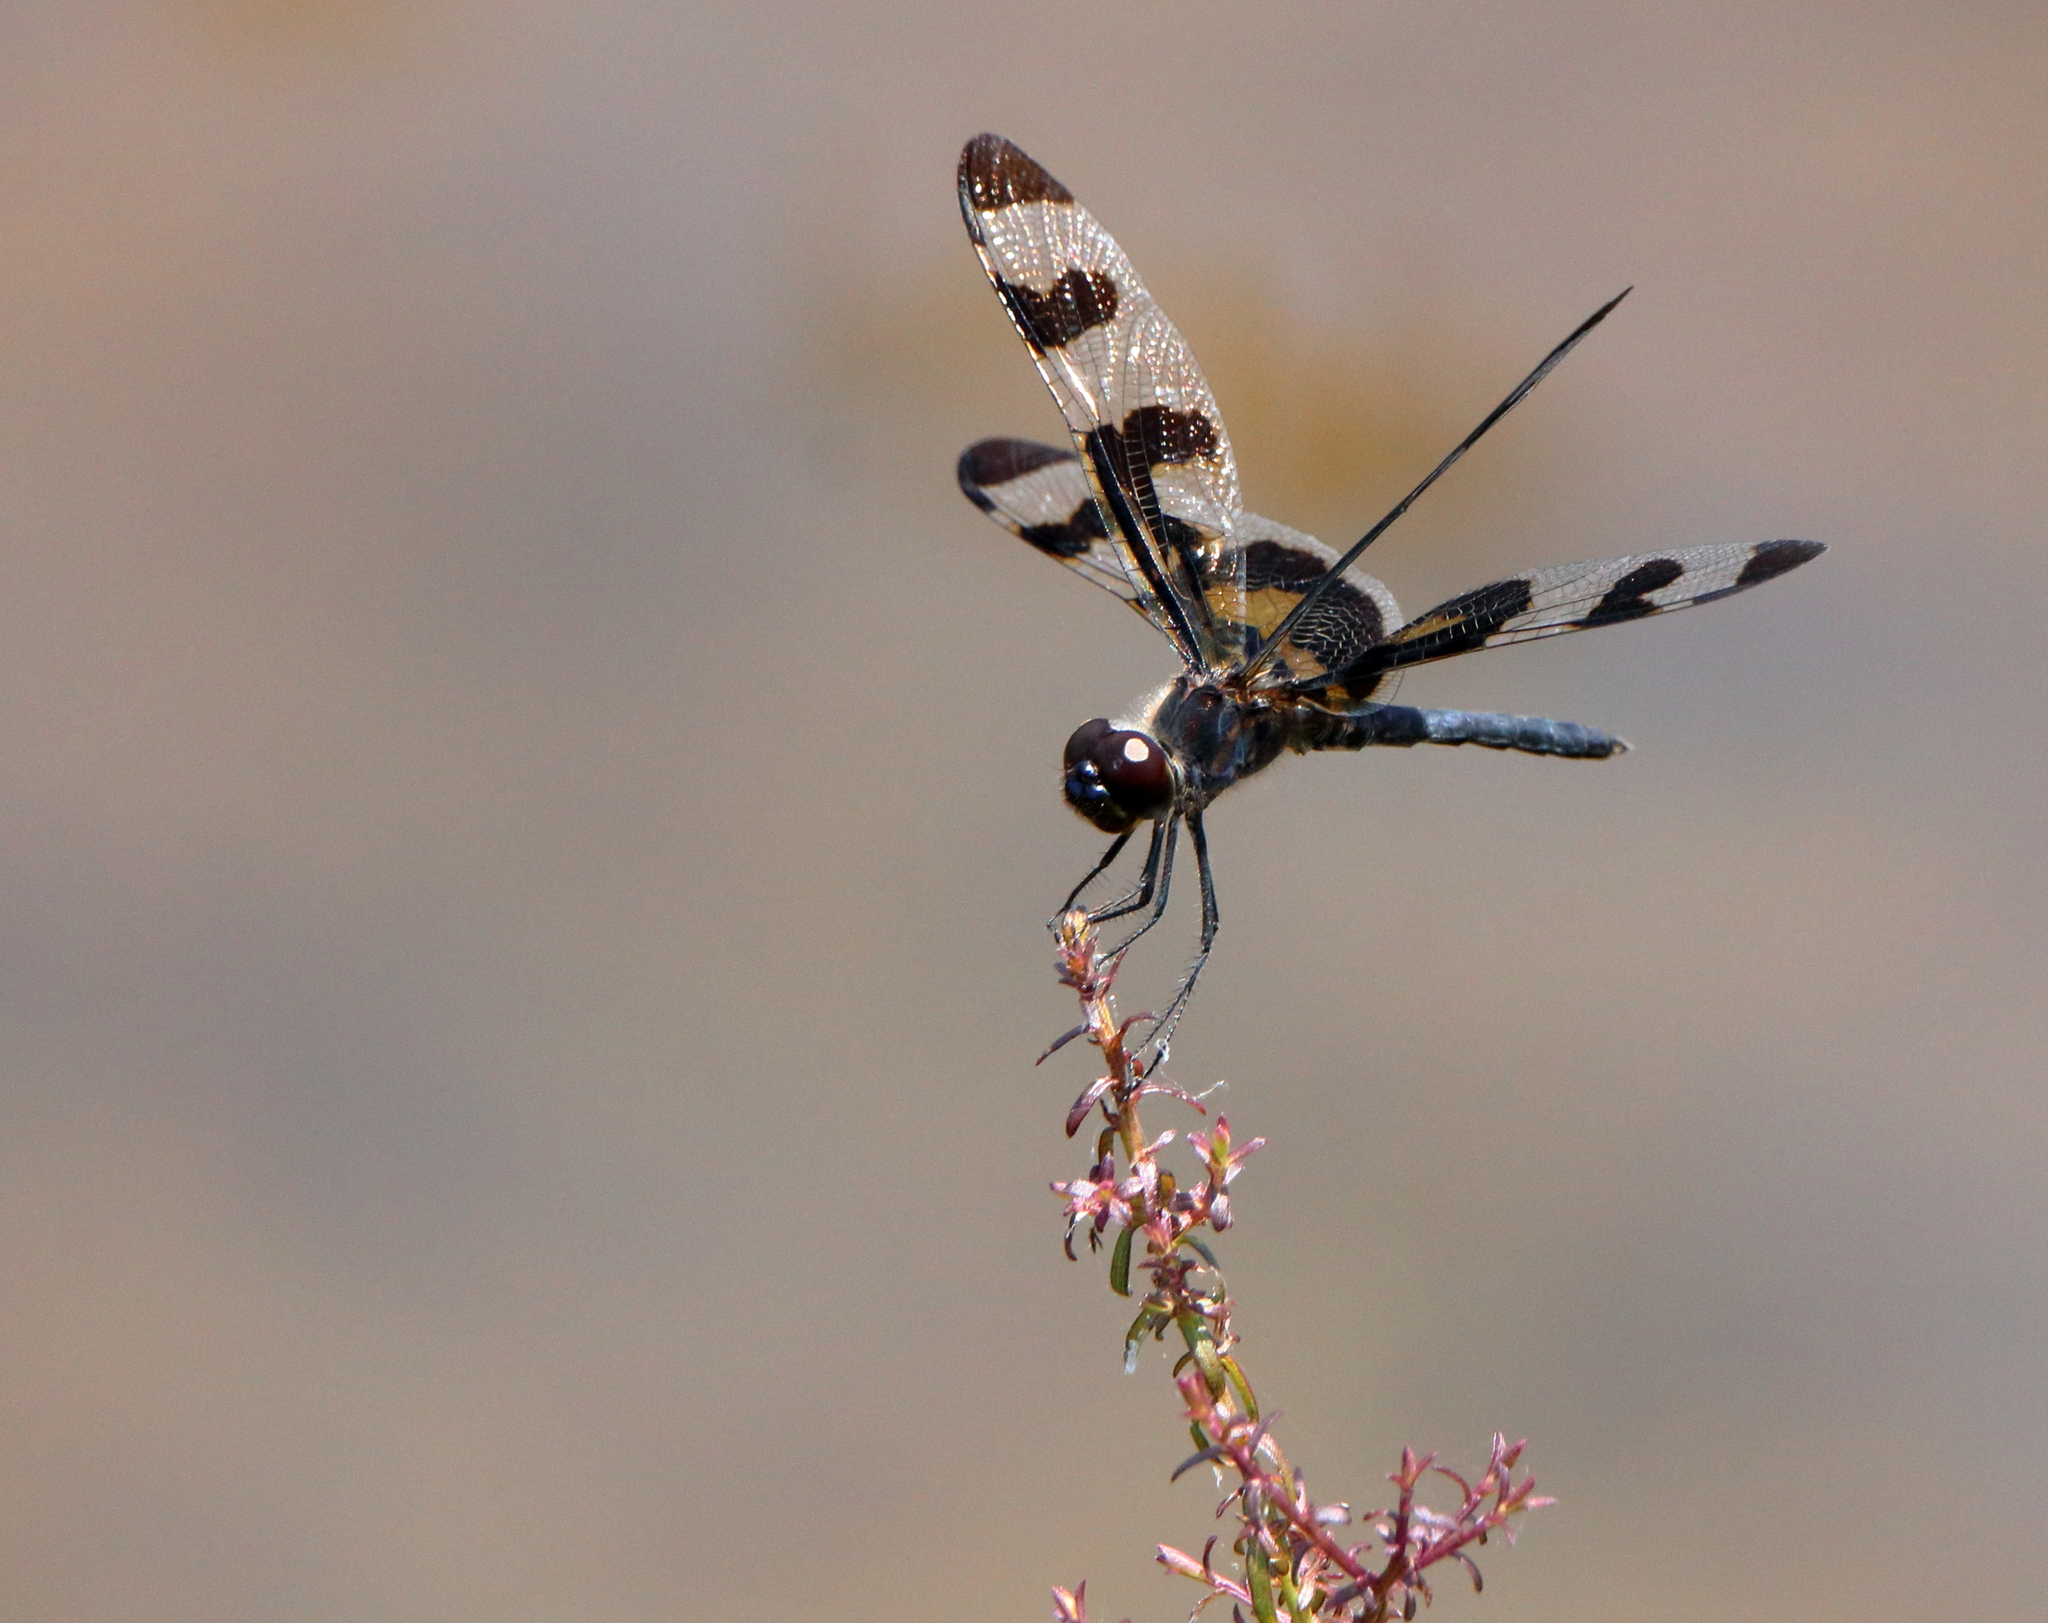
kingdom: Animalia
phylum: Arthropoda
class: Insecta
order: Odonata
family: Libellulidae
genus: Celithemis
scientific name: Celithemis fasciata
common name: Banded pennant
